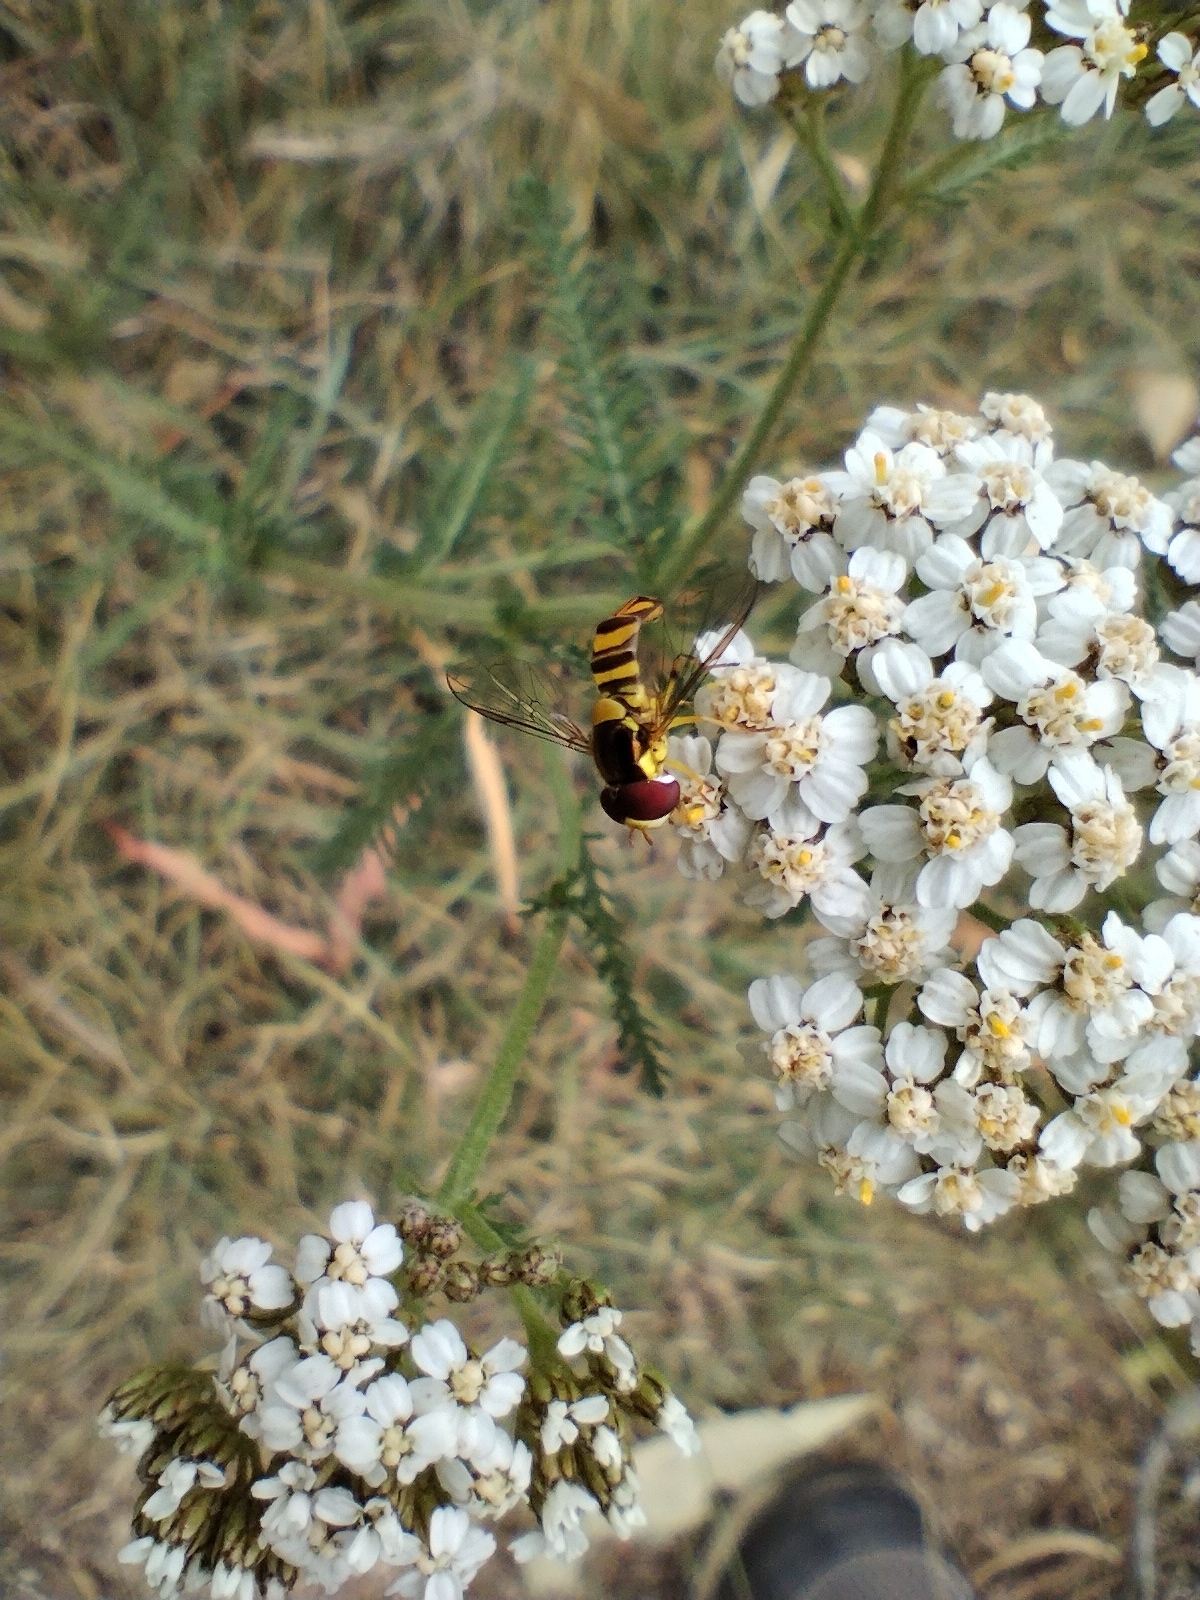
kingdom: Animalia
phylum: Arthropoda
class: Insecta
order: Diptera
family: Syrphidae
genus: Allograpta
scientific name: Allograpta obliqua
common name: Common oblique syrphid
